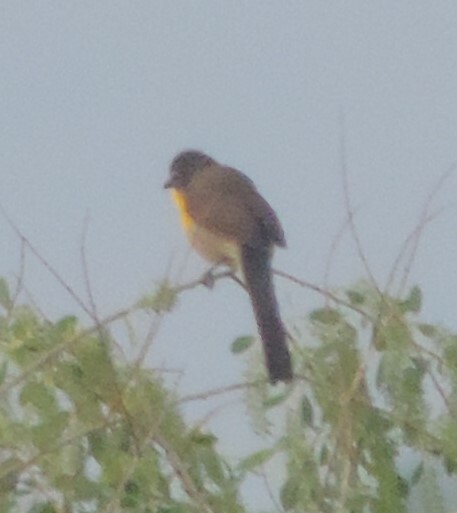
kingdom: Animalia
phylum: Chordata
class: Aves
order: Passeriformes
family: Parulidae
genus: Icteria
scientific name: Icteria virens
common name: Yellow-breasted chat
